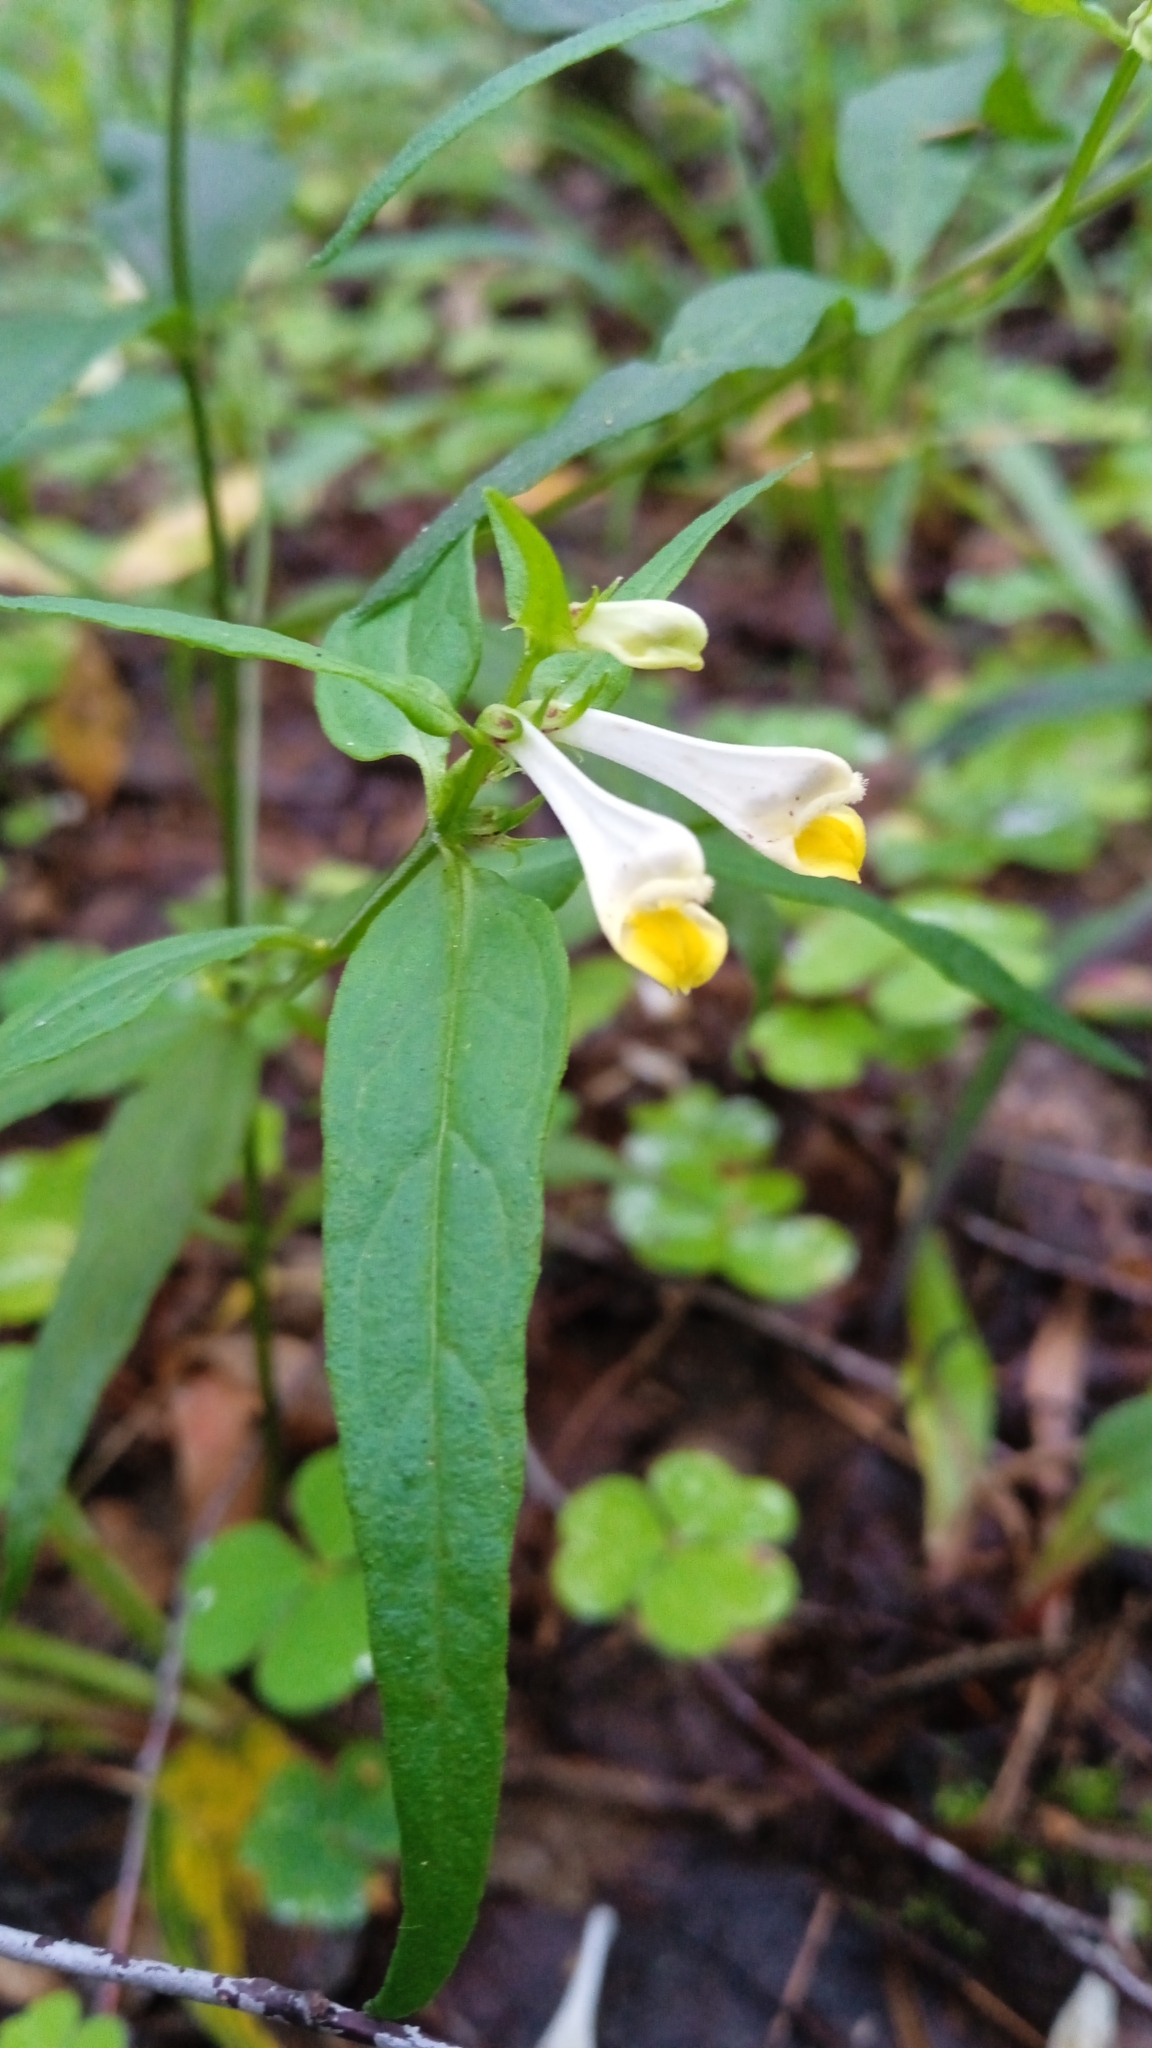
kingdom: Plantae
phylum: Tracheophyta
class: Magnoliopsida
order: Lamiales
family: Orobanchaceae
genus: Melampyrum
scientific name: Melampyrum pratense
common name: Common cow-wheat
